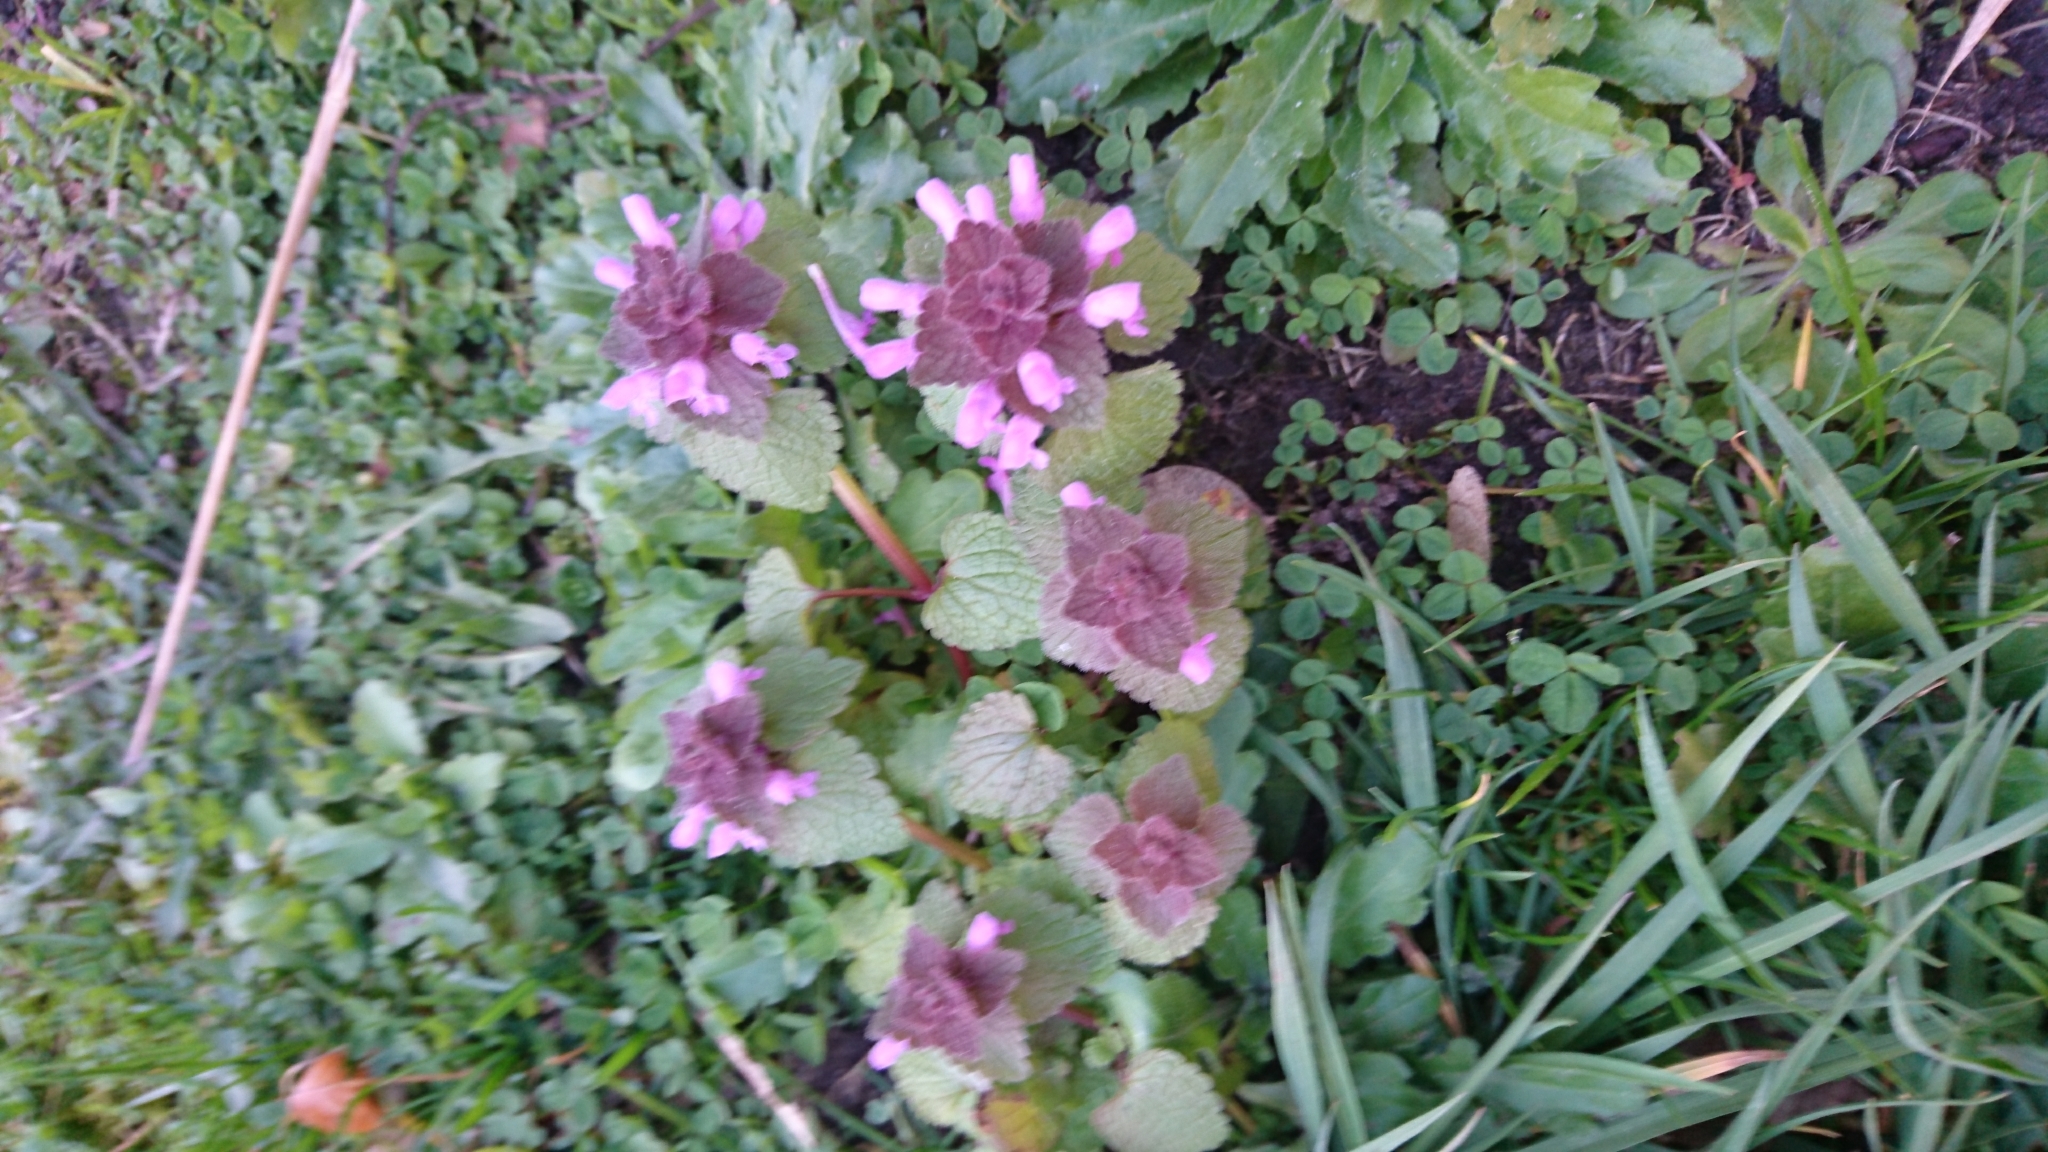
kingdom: Plantae
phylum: Tracheophyta
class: Magnoliopsida
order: Lamiales
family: Lamiaceae
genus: Lamium
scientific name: Lamium purpureum
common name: Red dead-nettle
